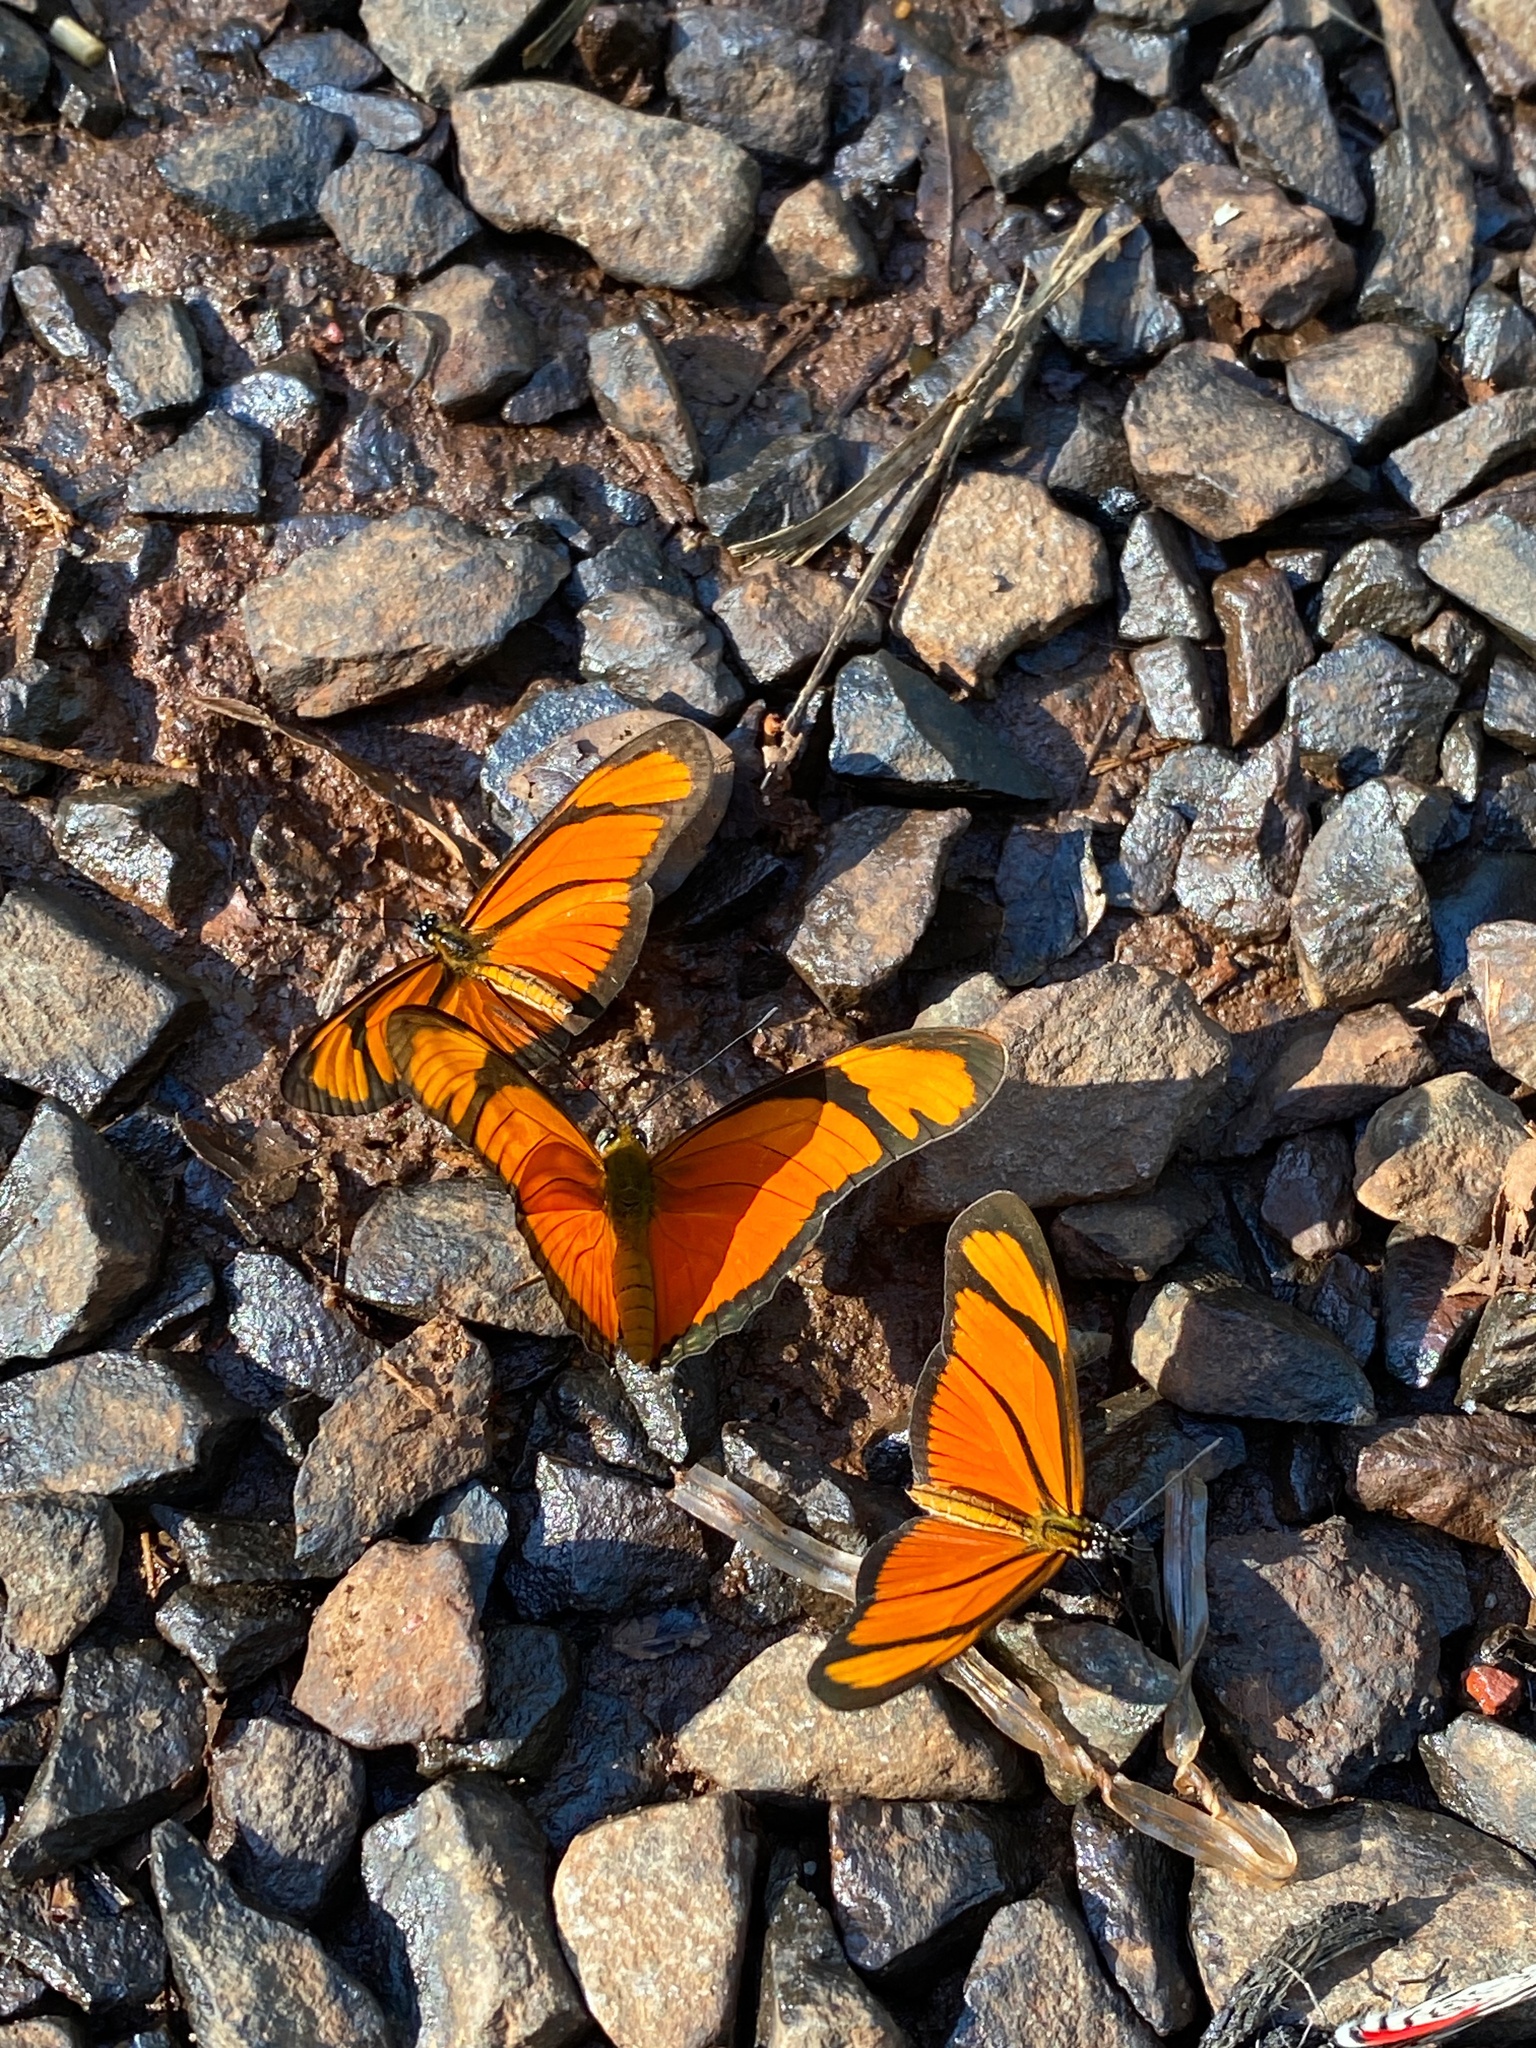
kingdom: Animalia
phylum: Arthropoda
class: Insecta
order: Lepidoptera
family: Nymphalidae
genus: Heliconius
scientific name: Heliconius aliphera
